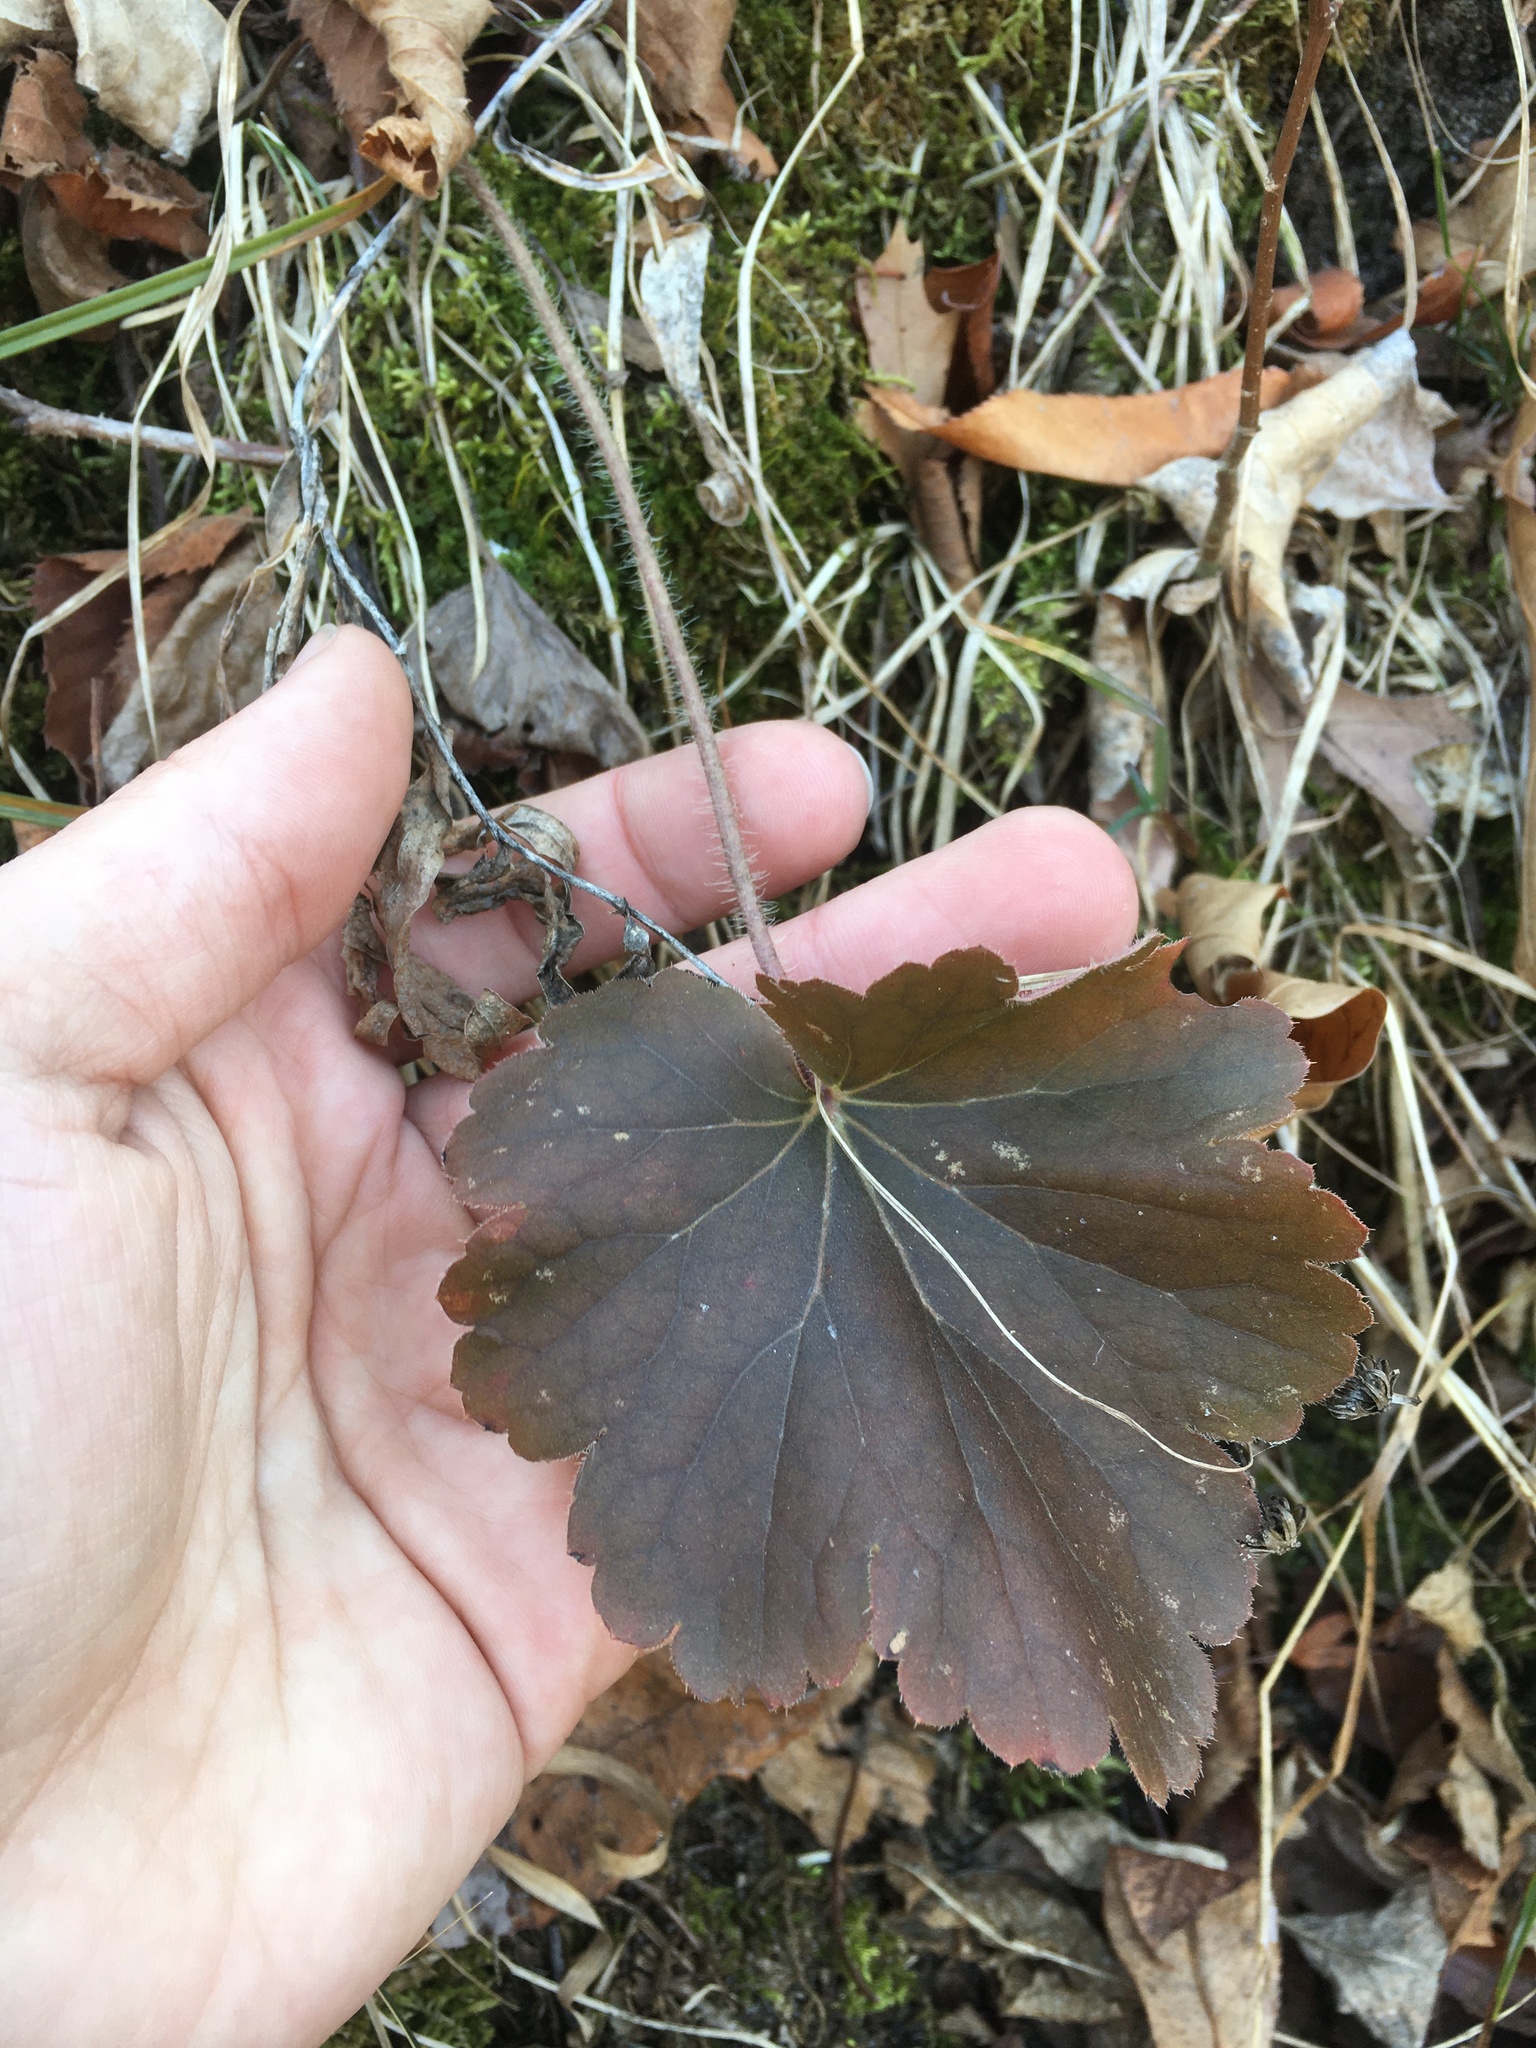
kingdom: Plantae
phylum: Tracheophyta
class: Magnoliopsida
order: Saxifragales
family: Saxifragaceae
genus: Heuchera
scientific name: Heuchera richardsonii
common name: Richardson's alumroot
